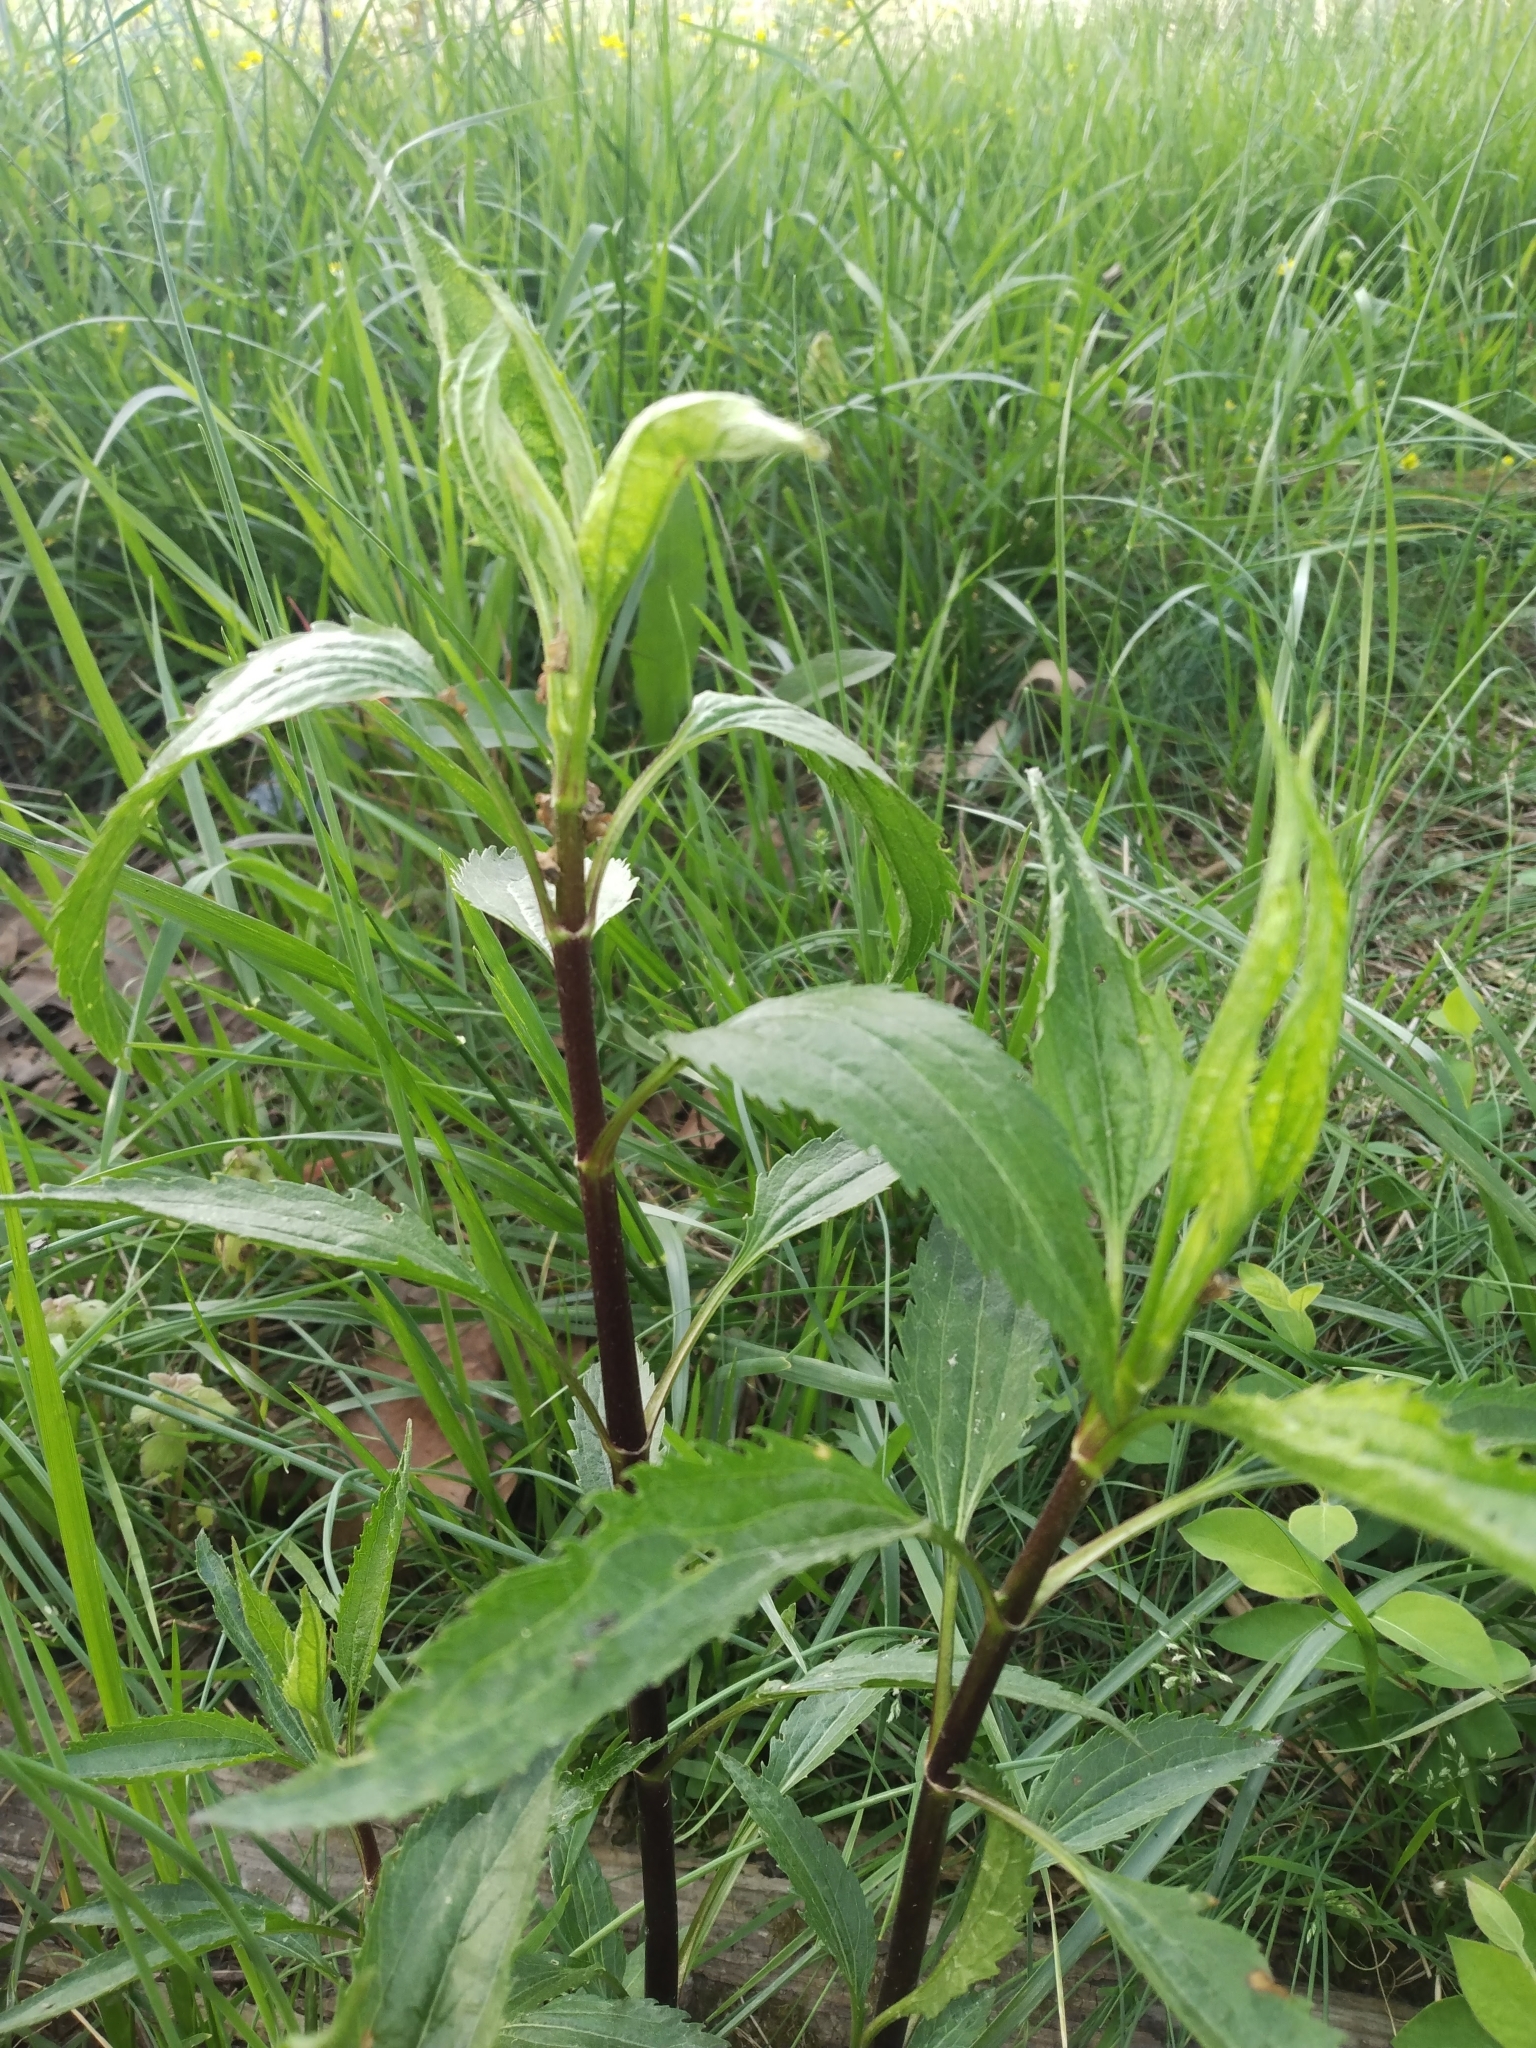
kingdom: Plantae
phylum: Tracheophyta
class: Magnoliopsida
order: Asterales
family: Asteraceae
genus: Eupatorium
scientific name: Eupatorium serotinum
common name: Late boneset
